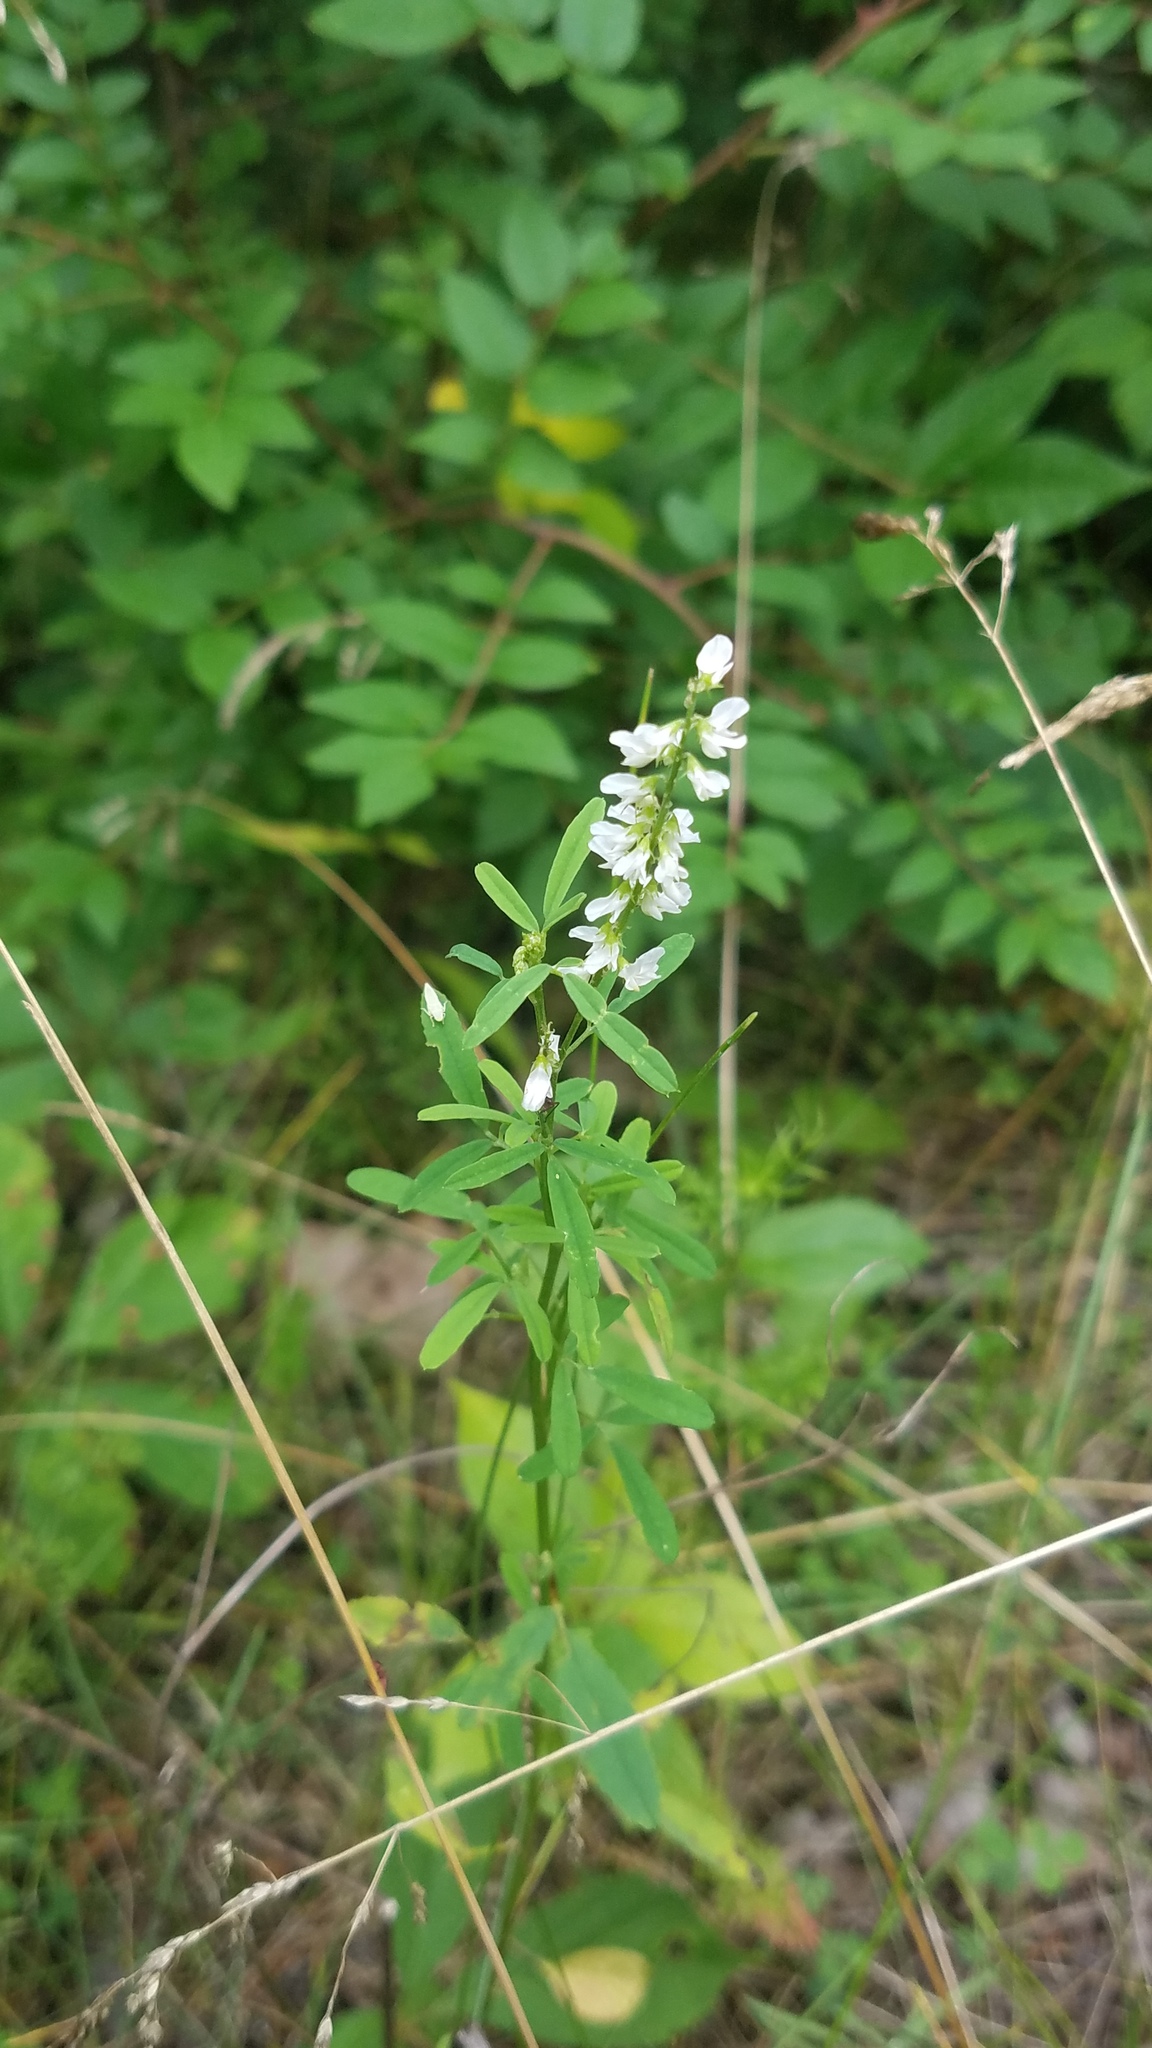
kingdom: Plantae
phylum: Tracheophyta
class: Magnoliopsida
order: Fabales
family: Fabaceae
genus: Melilotus
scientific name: Melilotus albus
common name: White melilot
